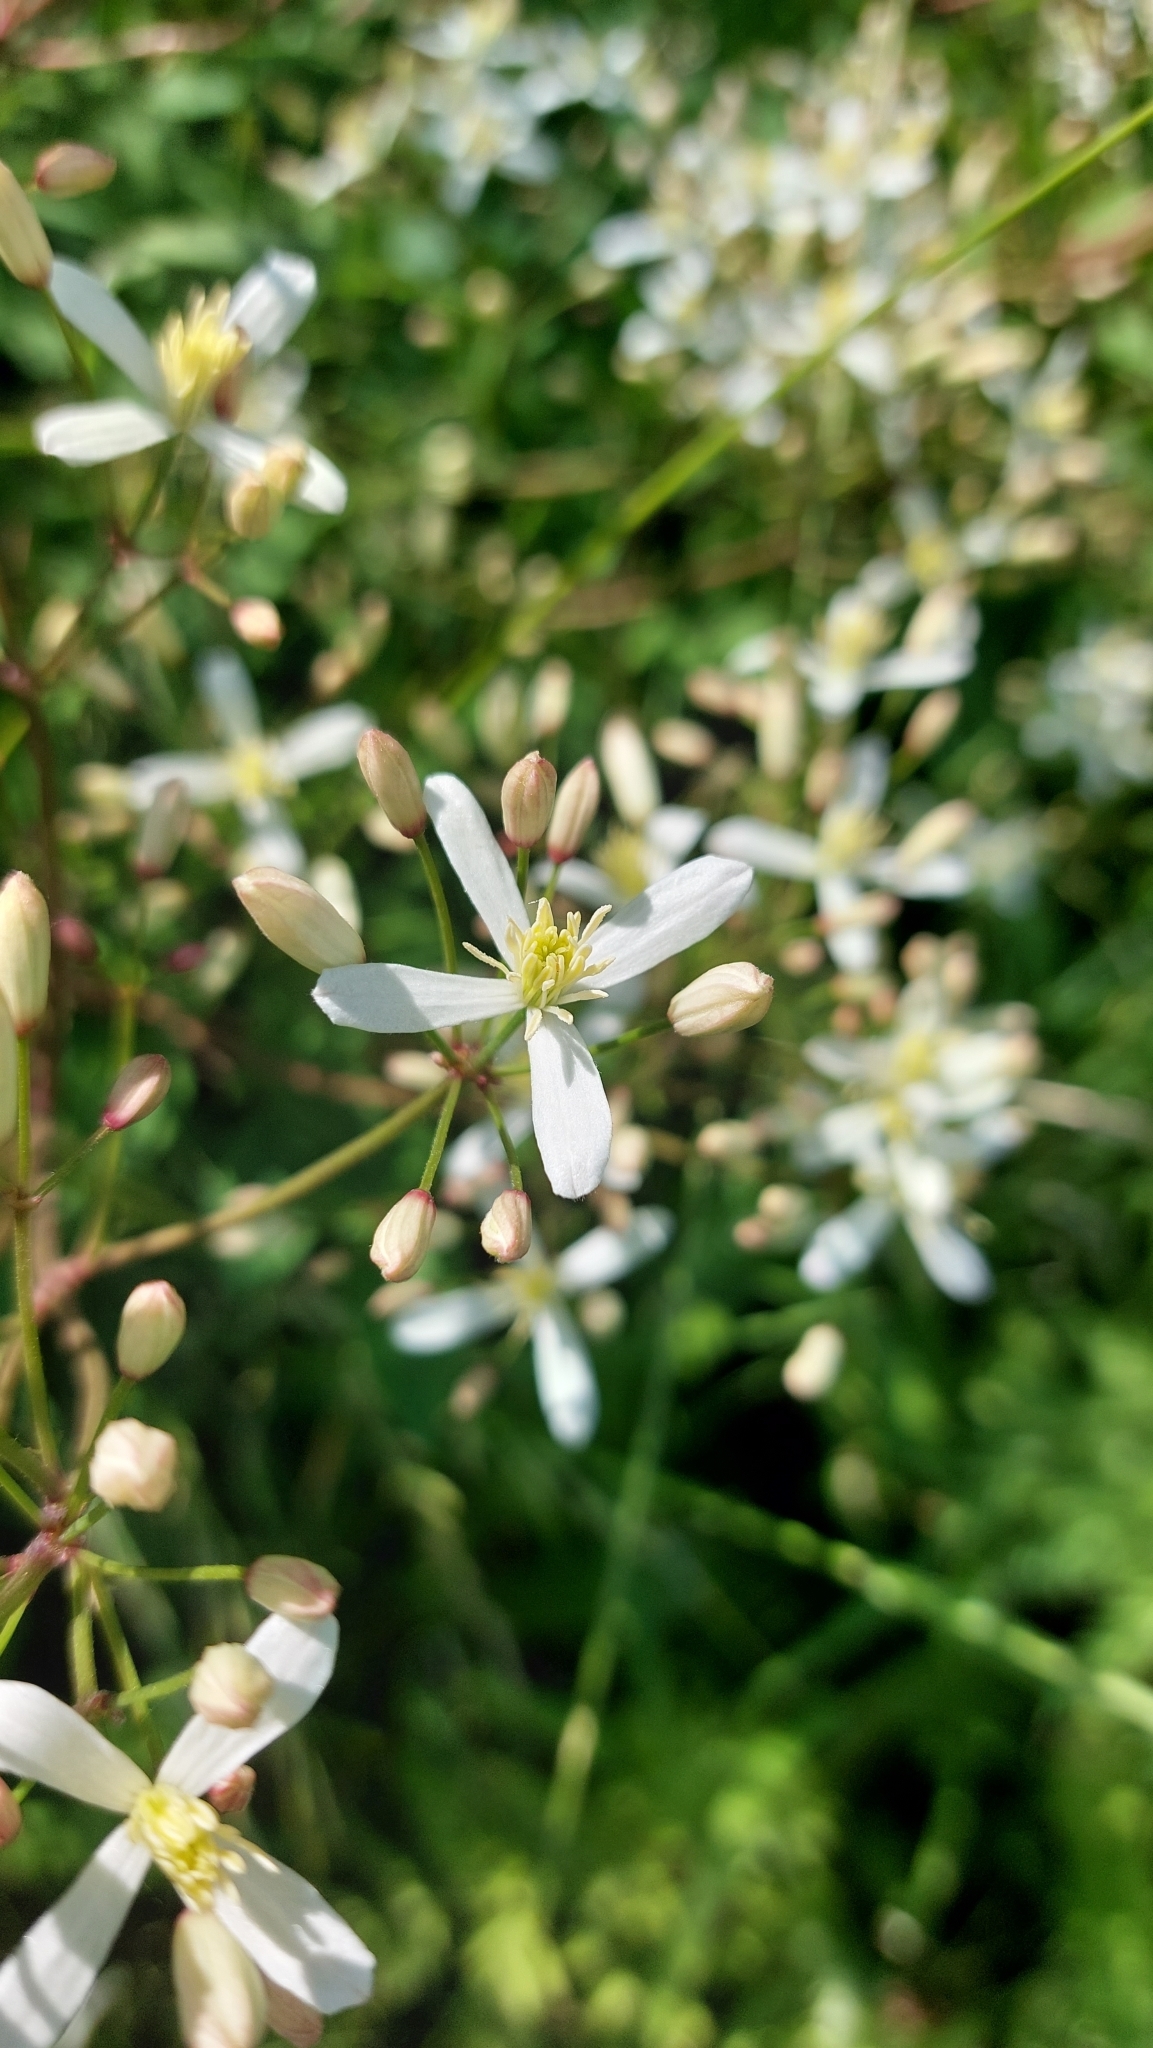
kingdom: Plantae
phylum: Tracheophyta
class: Magnoliopsida
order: Ranunculales
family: Ranunculaceae
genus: Clematis
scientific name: Clematis recta
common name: Ground clematis
